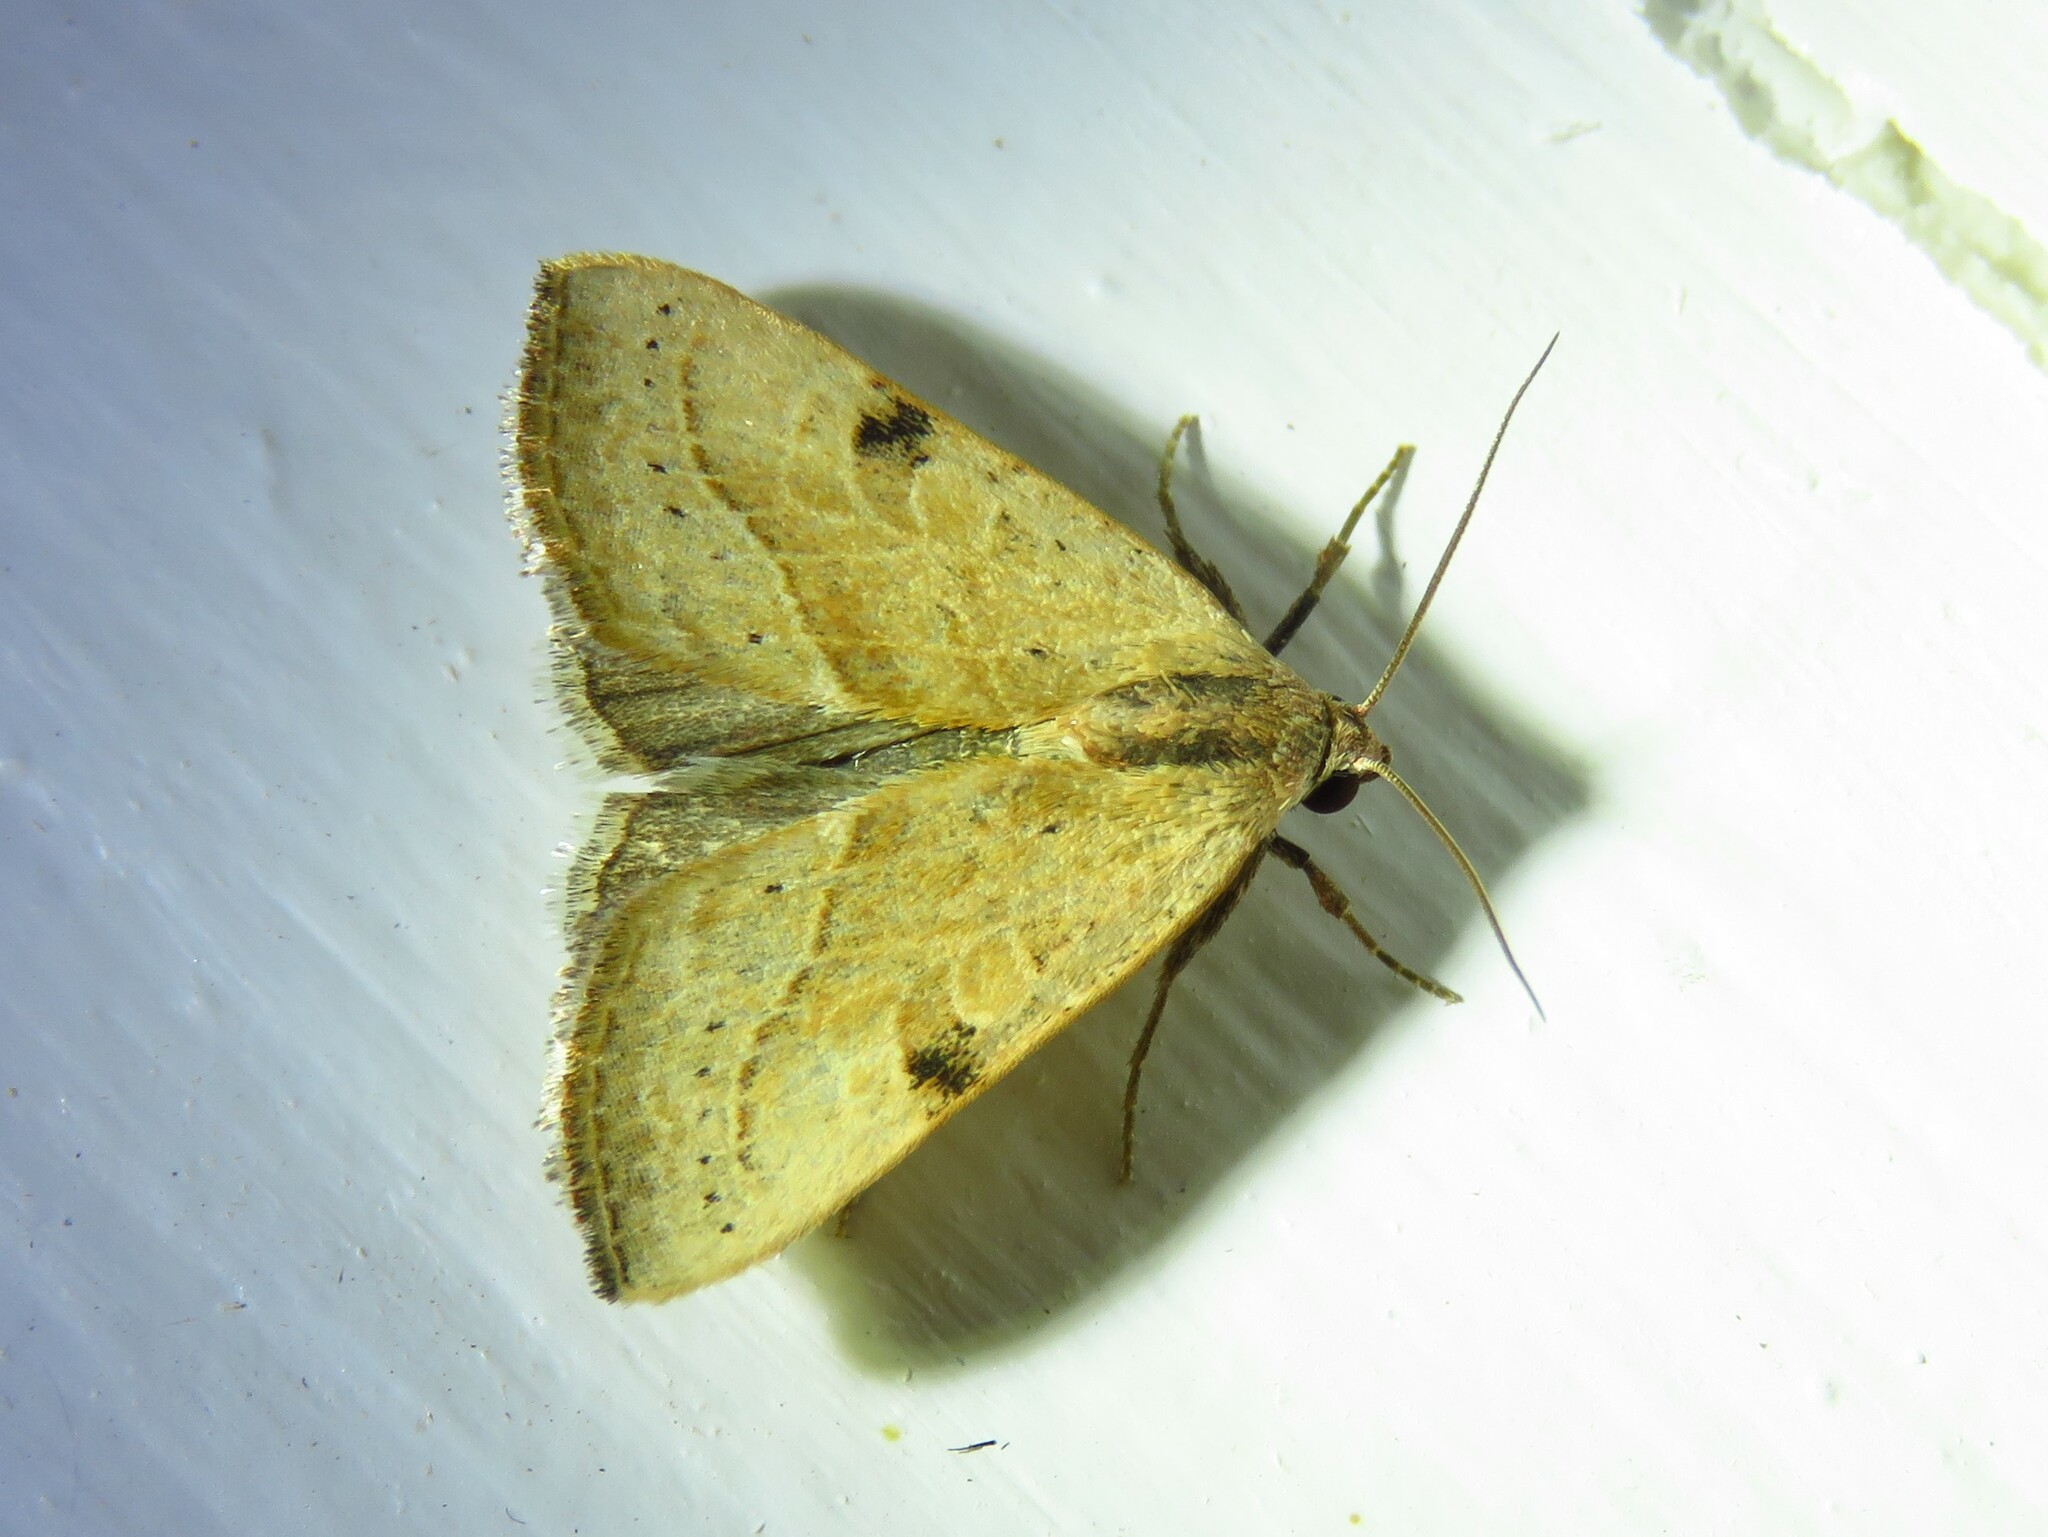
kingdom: Animalia
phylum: Arthropoda
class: Insecta
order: Lepidoptera
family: Noctuidae
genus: Galgula
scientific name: Galgula partita
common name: Wedgeling
